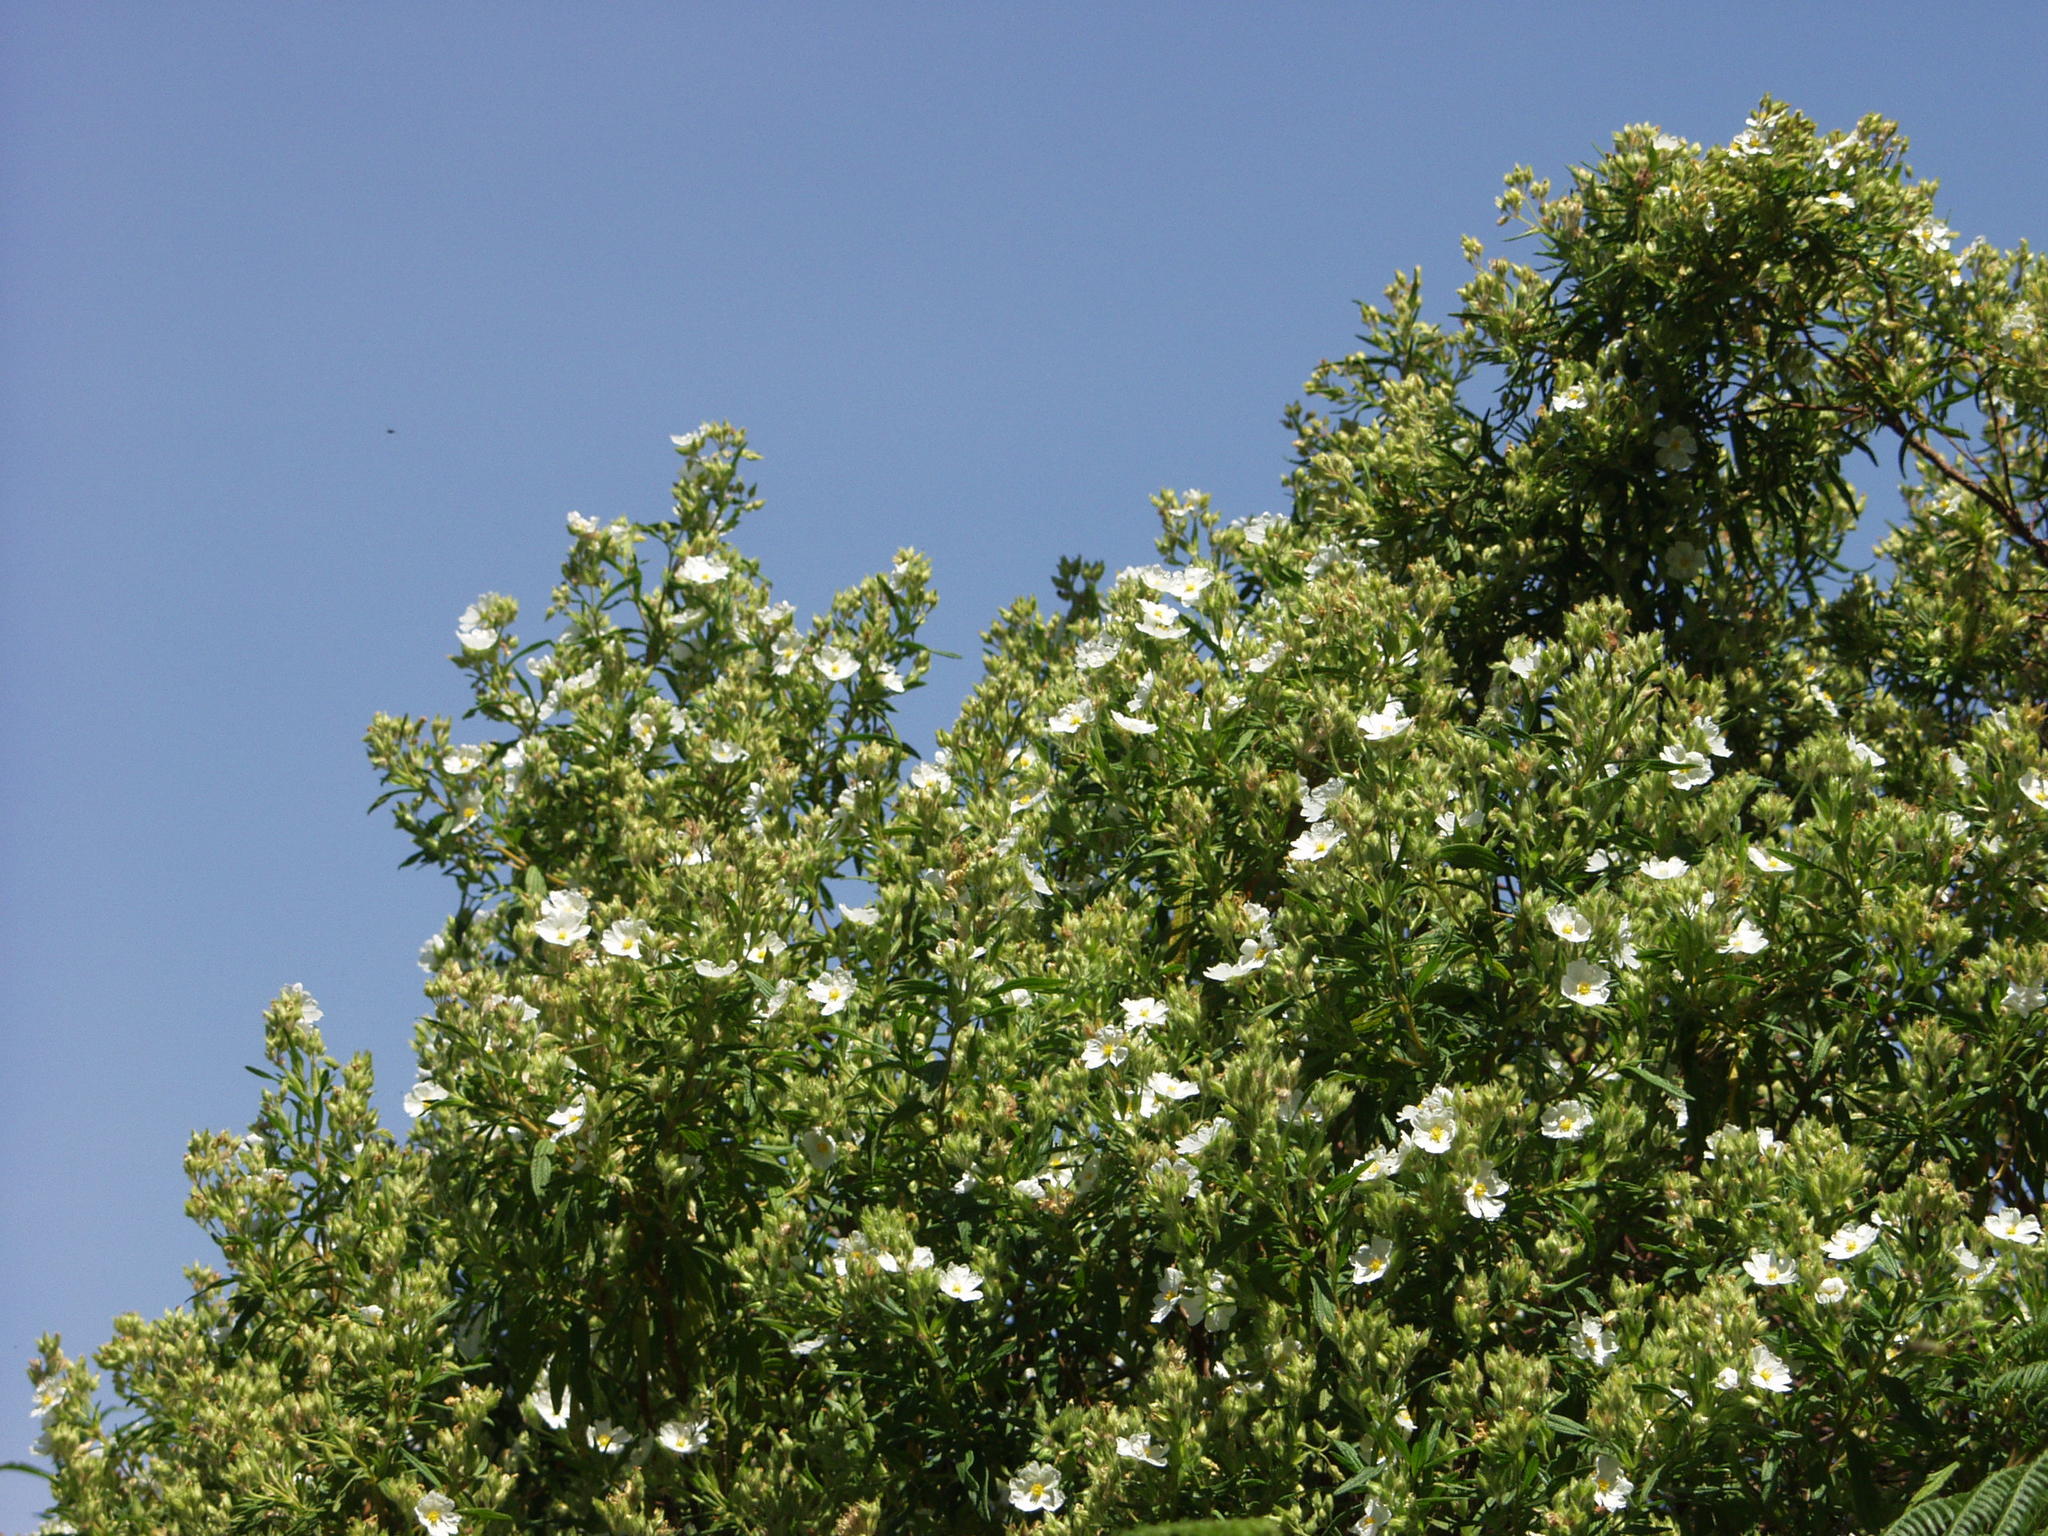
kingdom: Plantae
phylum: Tracheophyta
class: Magnoliopsida
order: Malvales
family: Cistaceae
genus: Cistus
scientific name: Cistus monspeliensis
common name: Montpelier cistus
